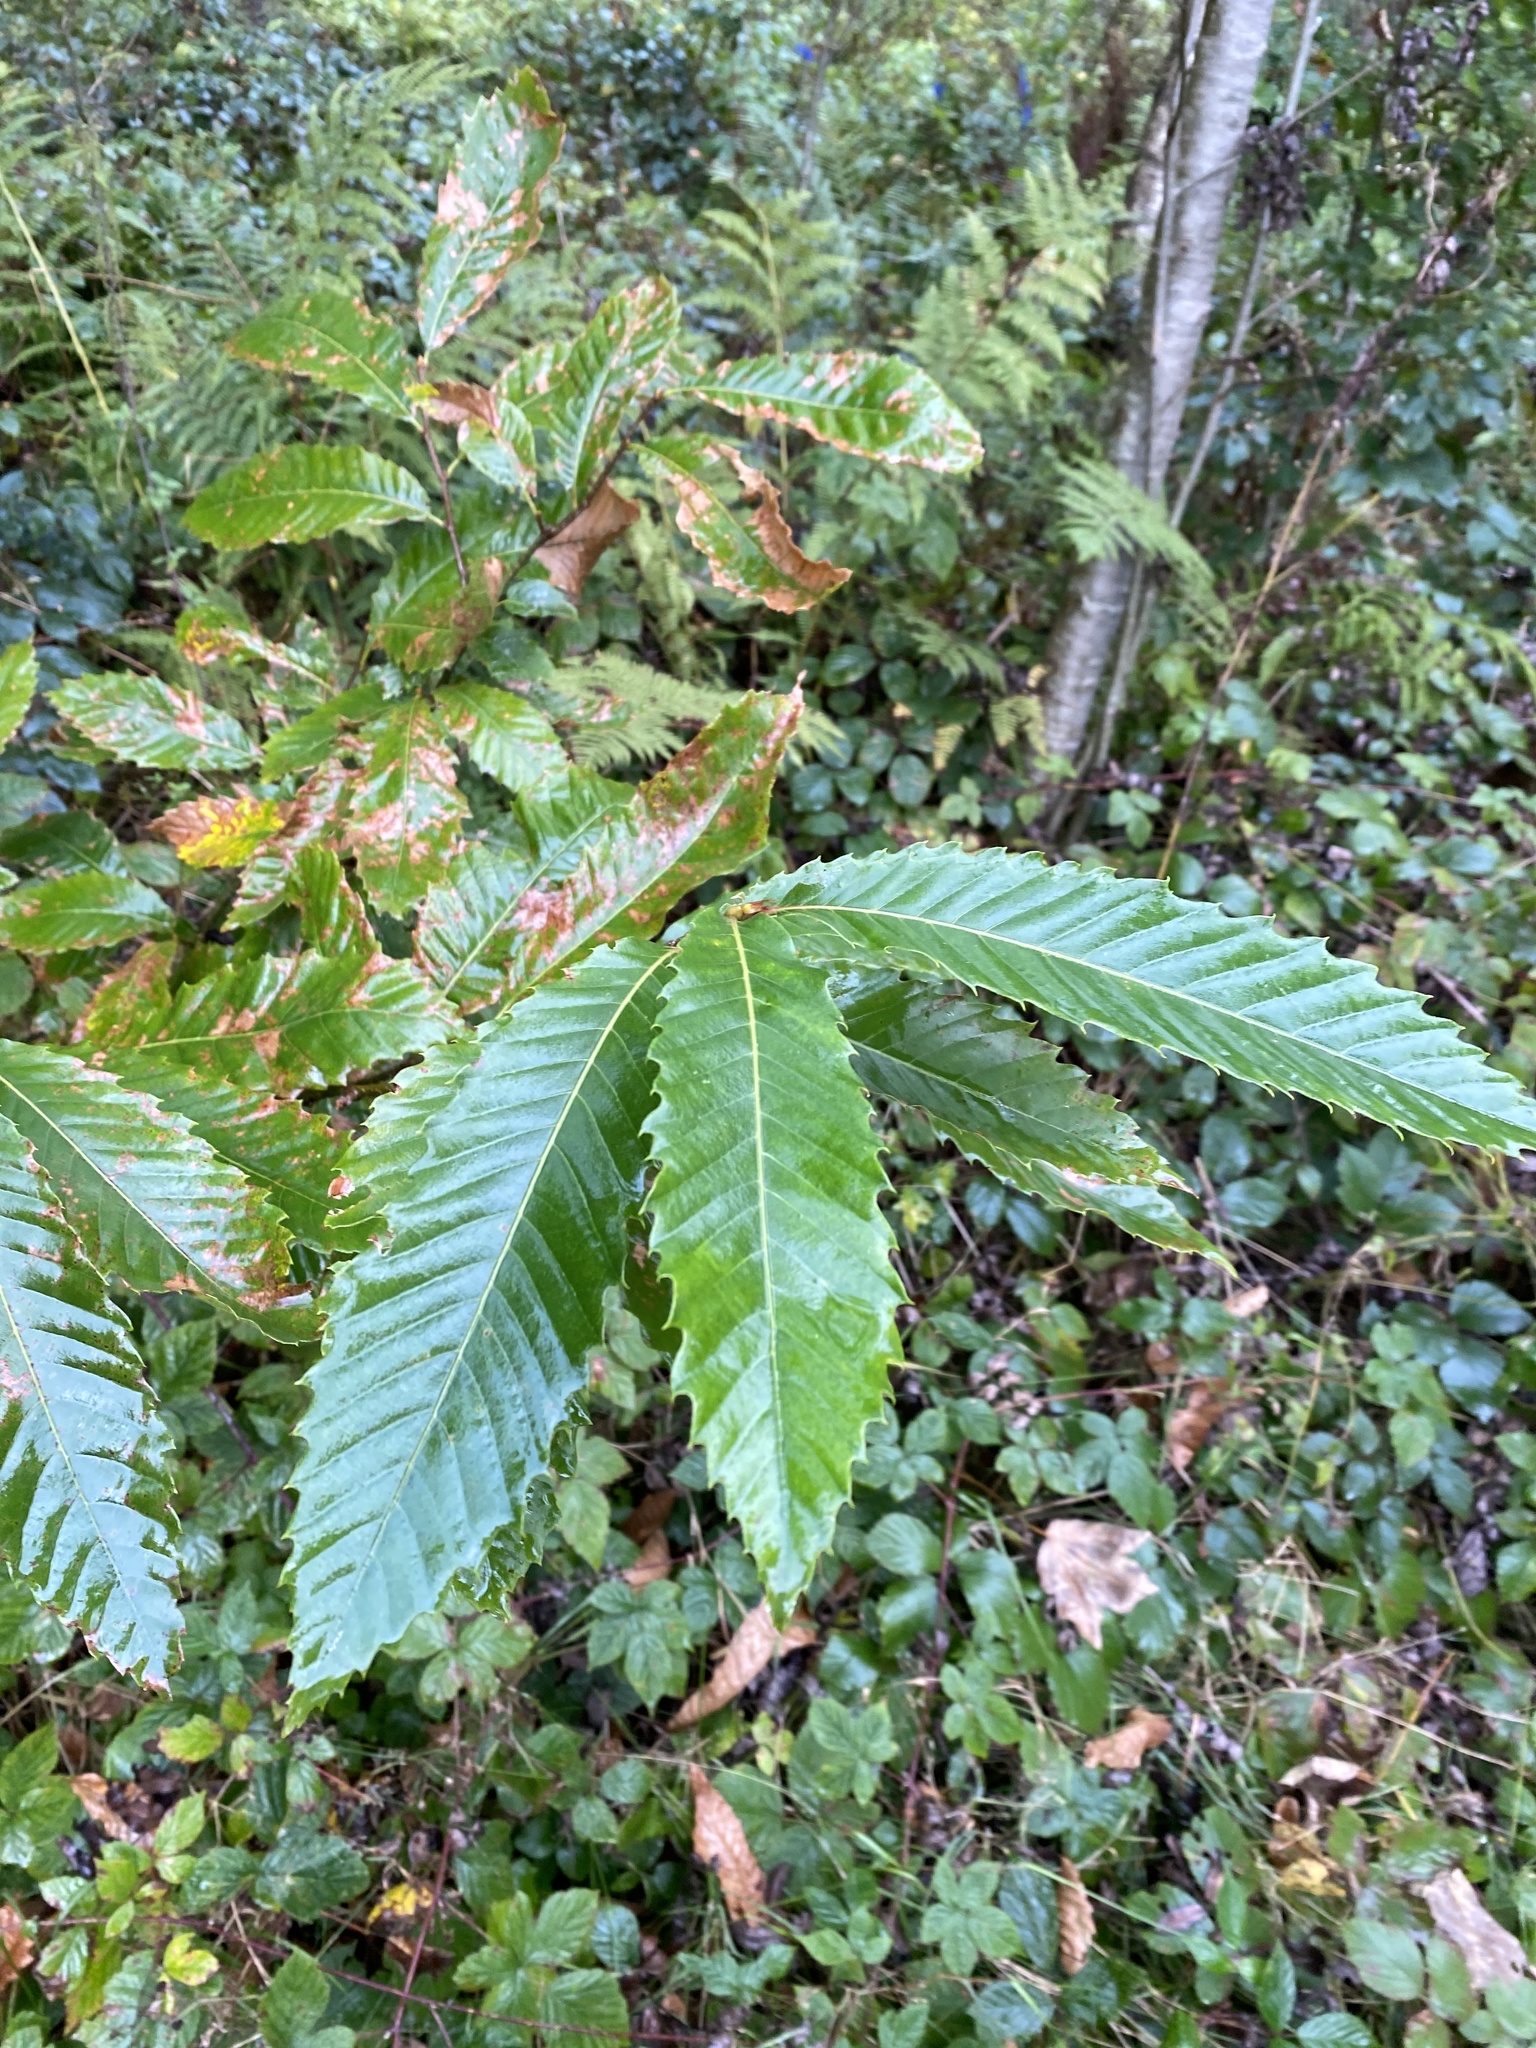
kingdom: Plantae
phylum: Tracheophyta
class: Magnoliopsida
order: Fagales
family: Fagaceae
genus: Castanea
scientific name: Castanea sativa
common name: Sweet chestnut
